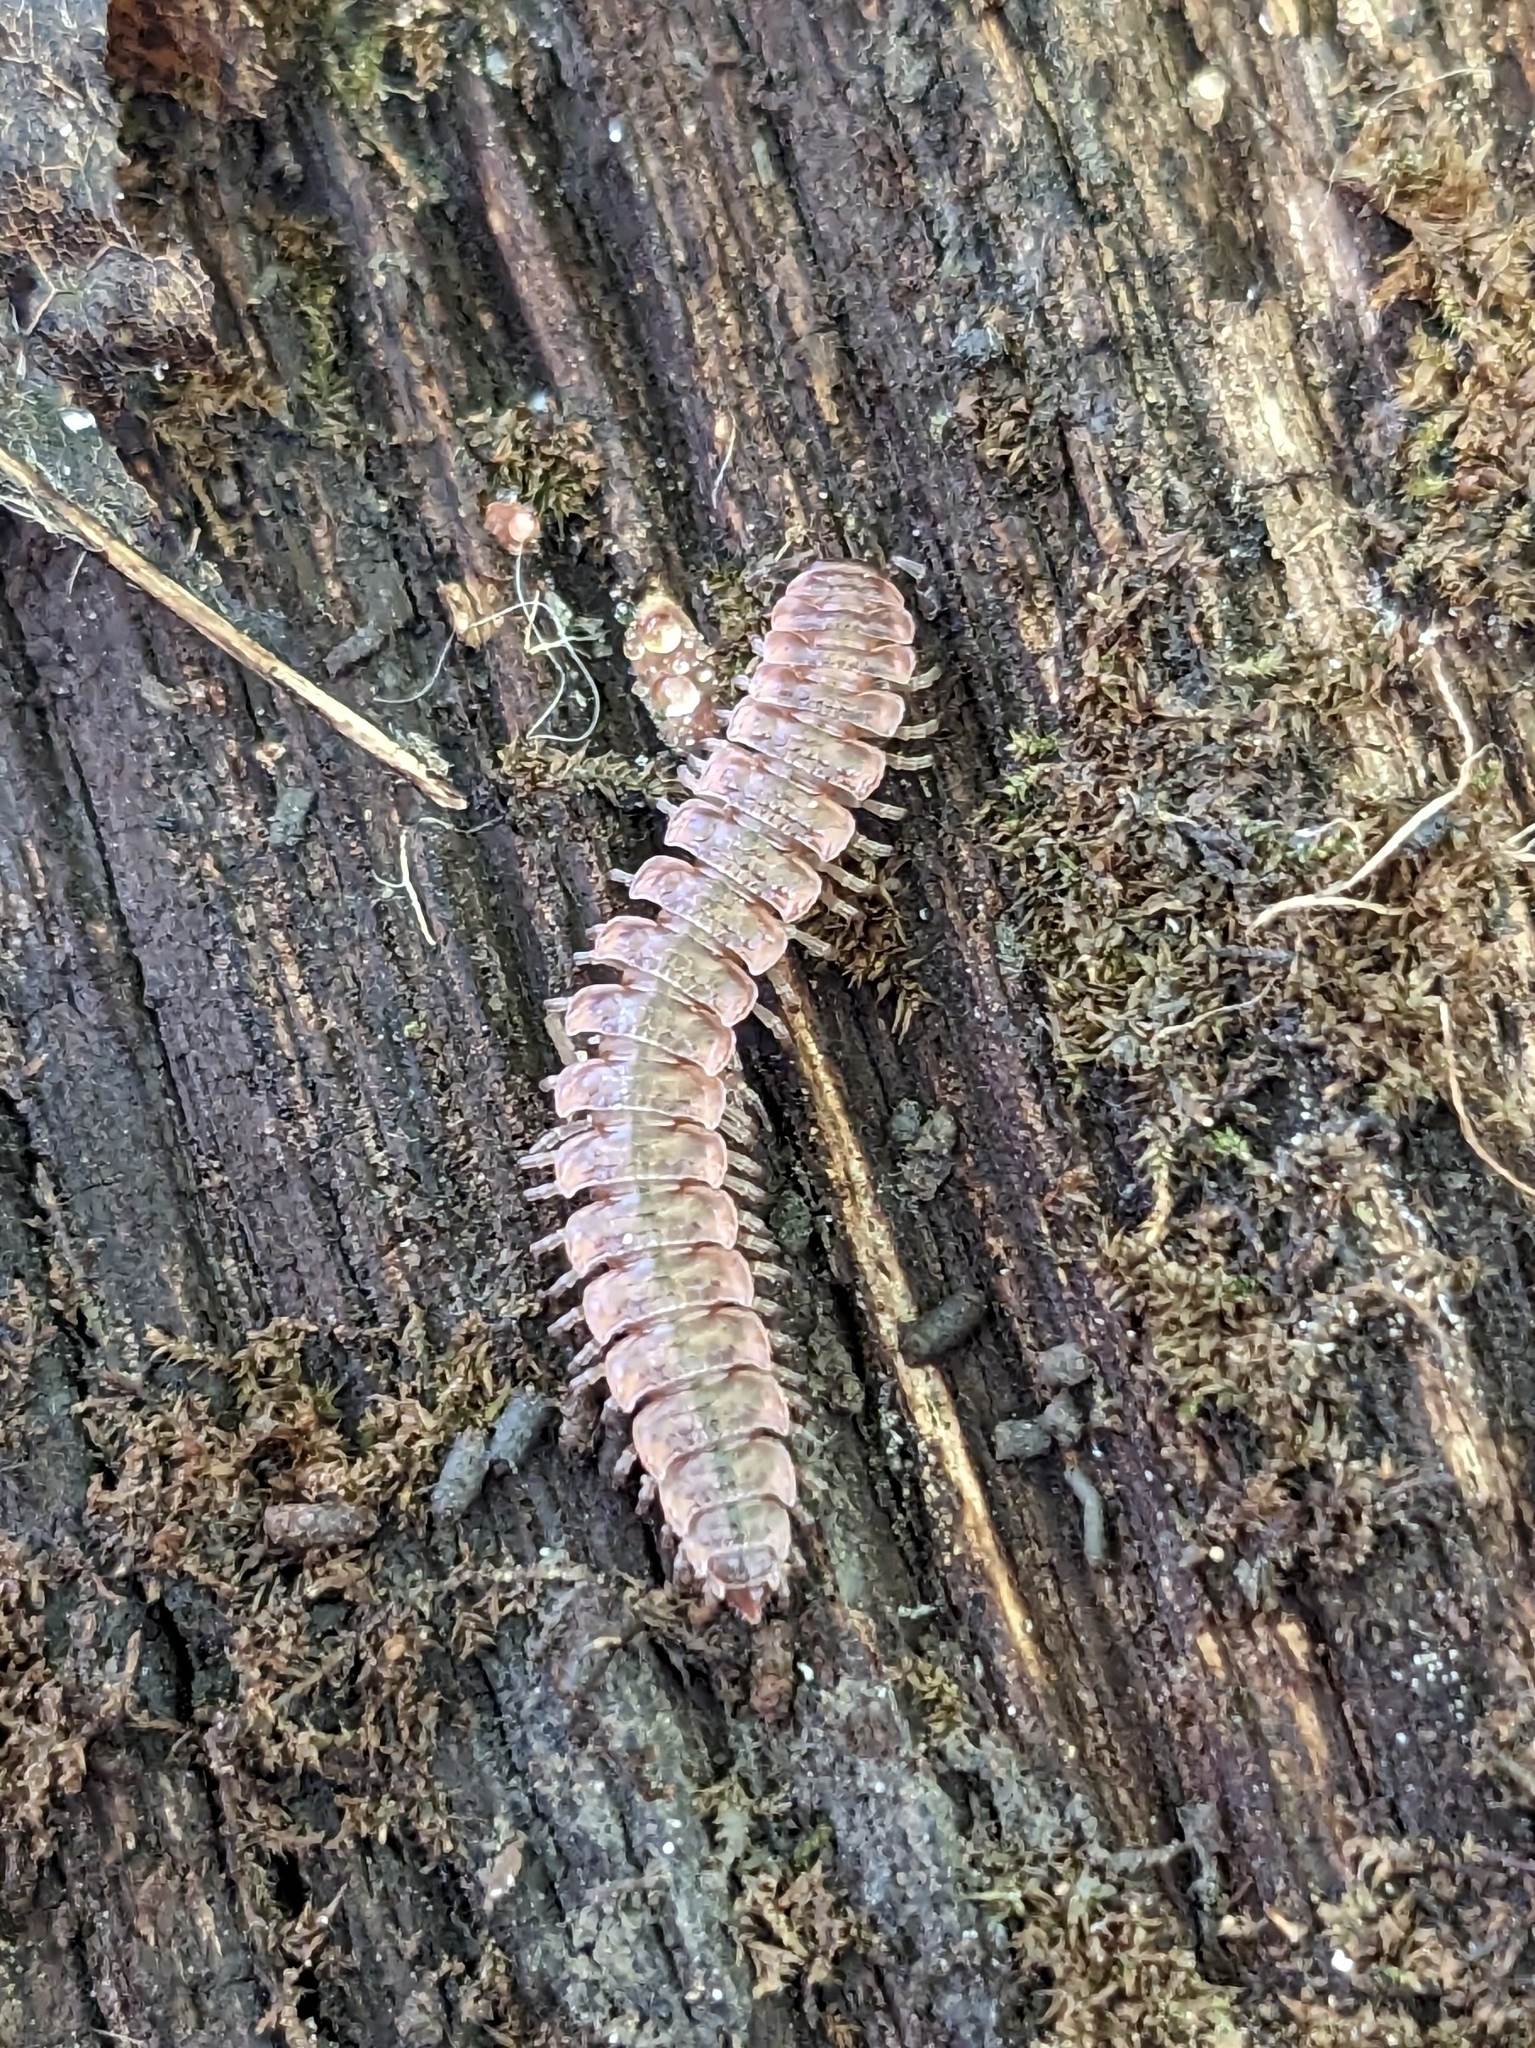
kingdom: Animalia
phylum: Arthropoda
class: Diplopoda
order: Polydesmida
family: Polydesmidae
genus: Pseudopolydesmus
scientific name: Pseudopolydesmus serratus
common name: Common pink flat-back millipede
